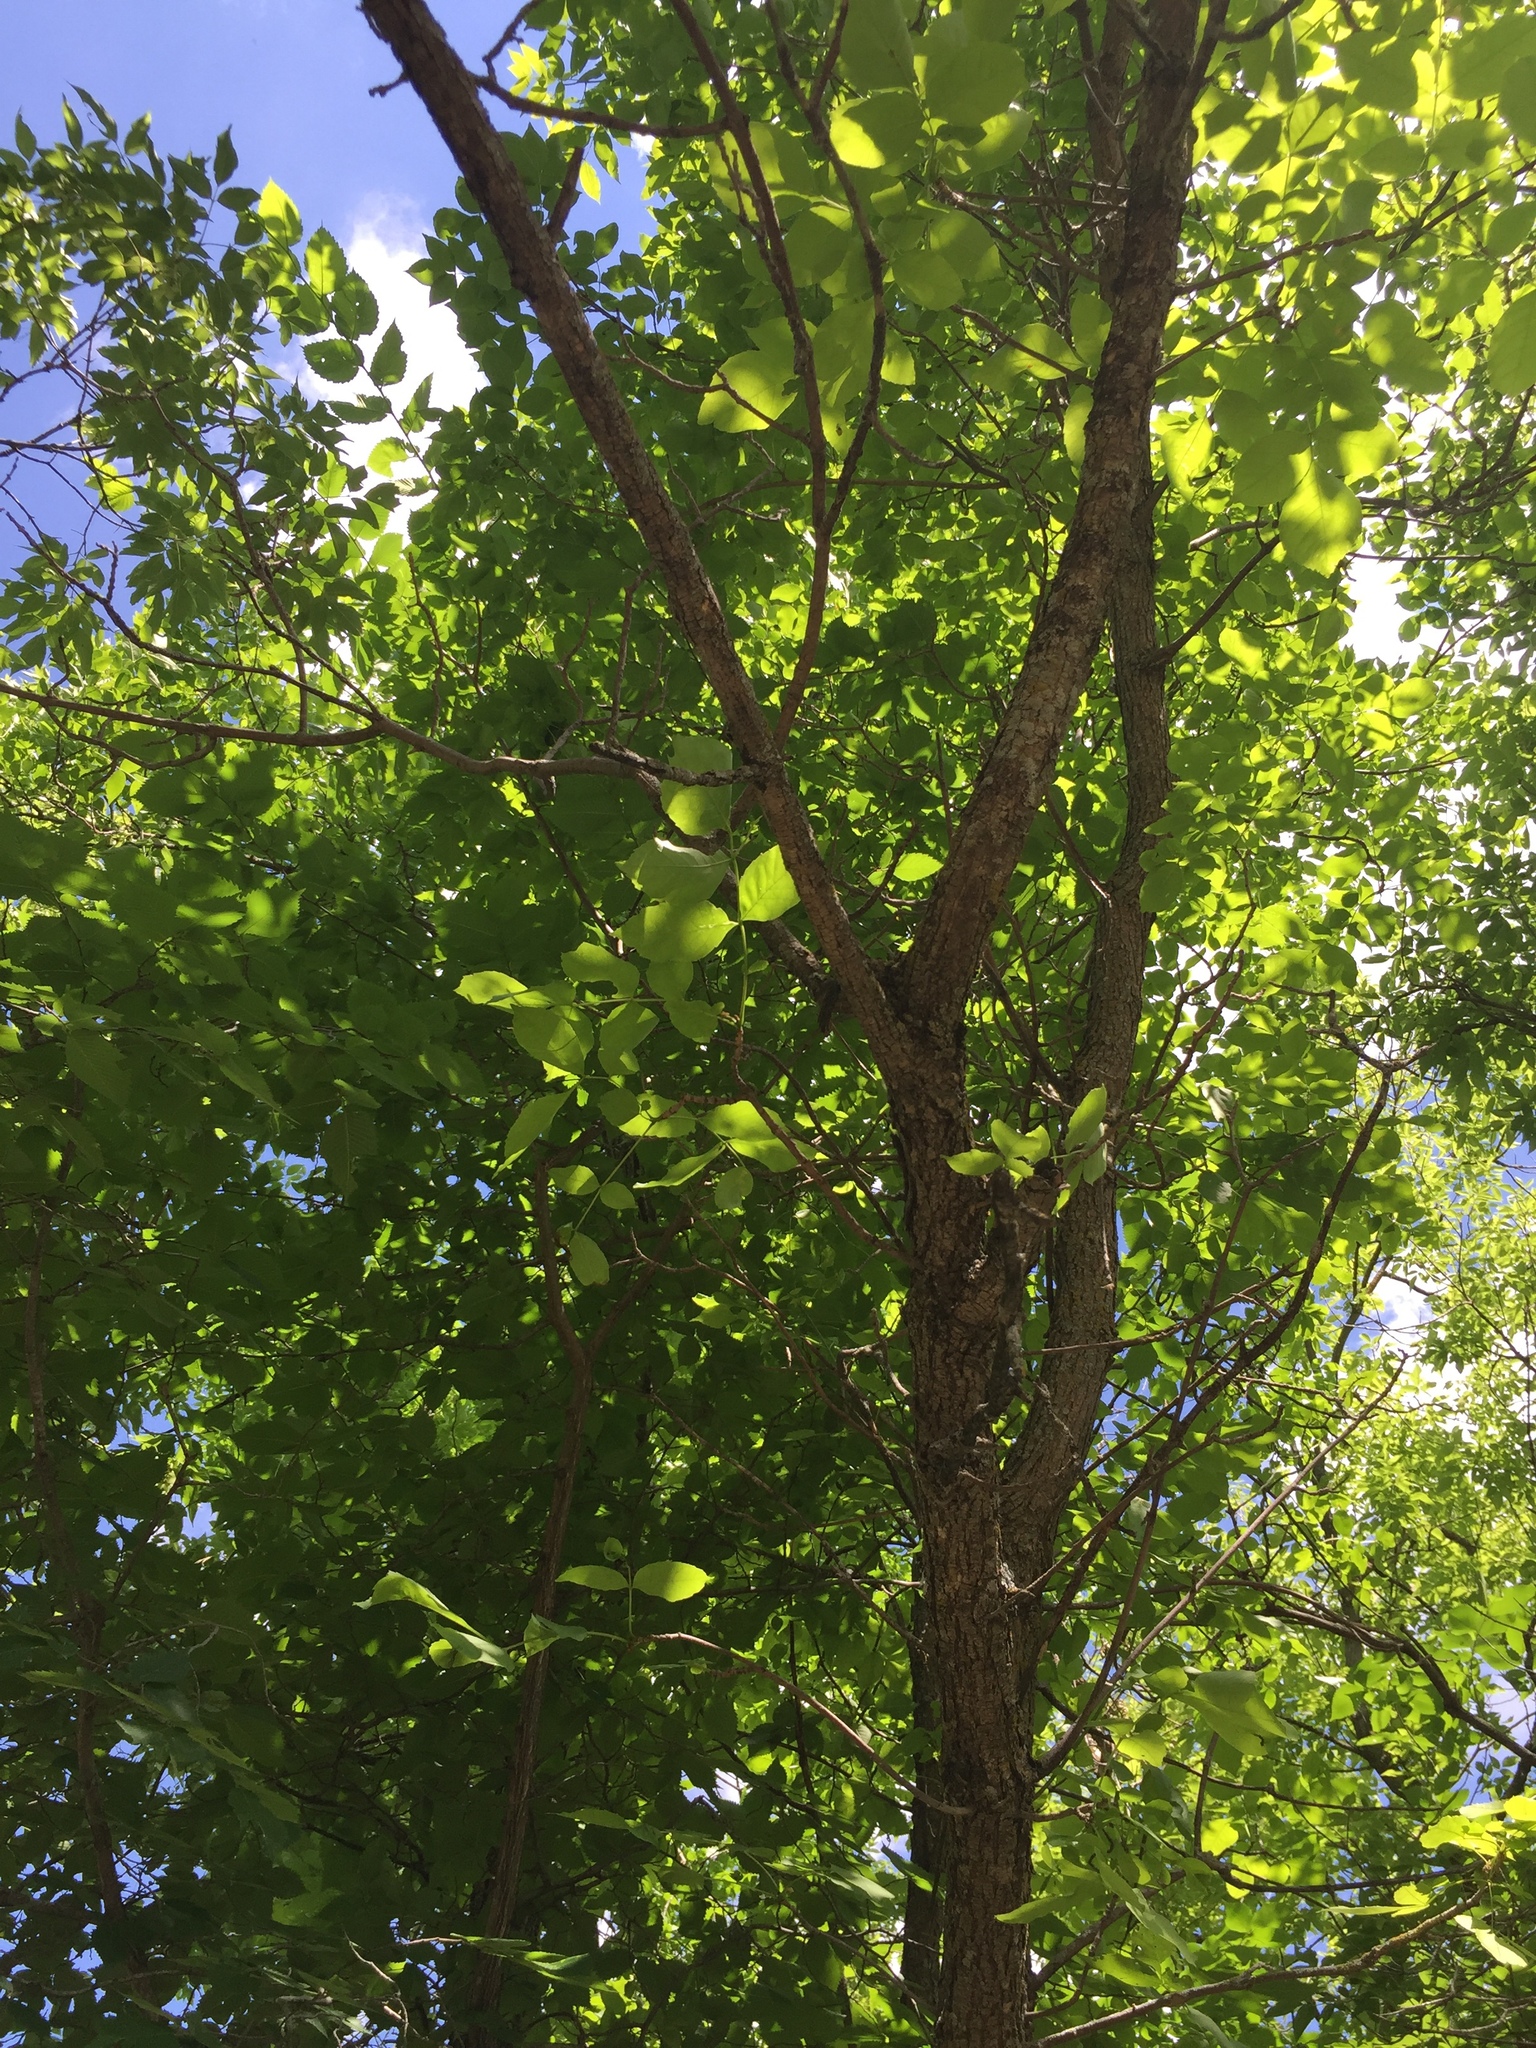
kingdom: Plantae
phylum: Tracheophyta
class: Magnoliopsida
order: Lamiales
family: Oleaceae
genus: Fraxinus
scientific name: Fraxinus pennsylvanica
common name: Green ash
